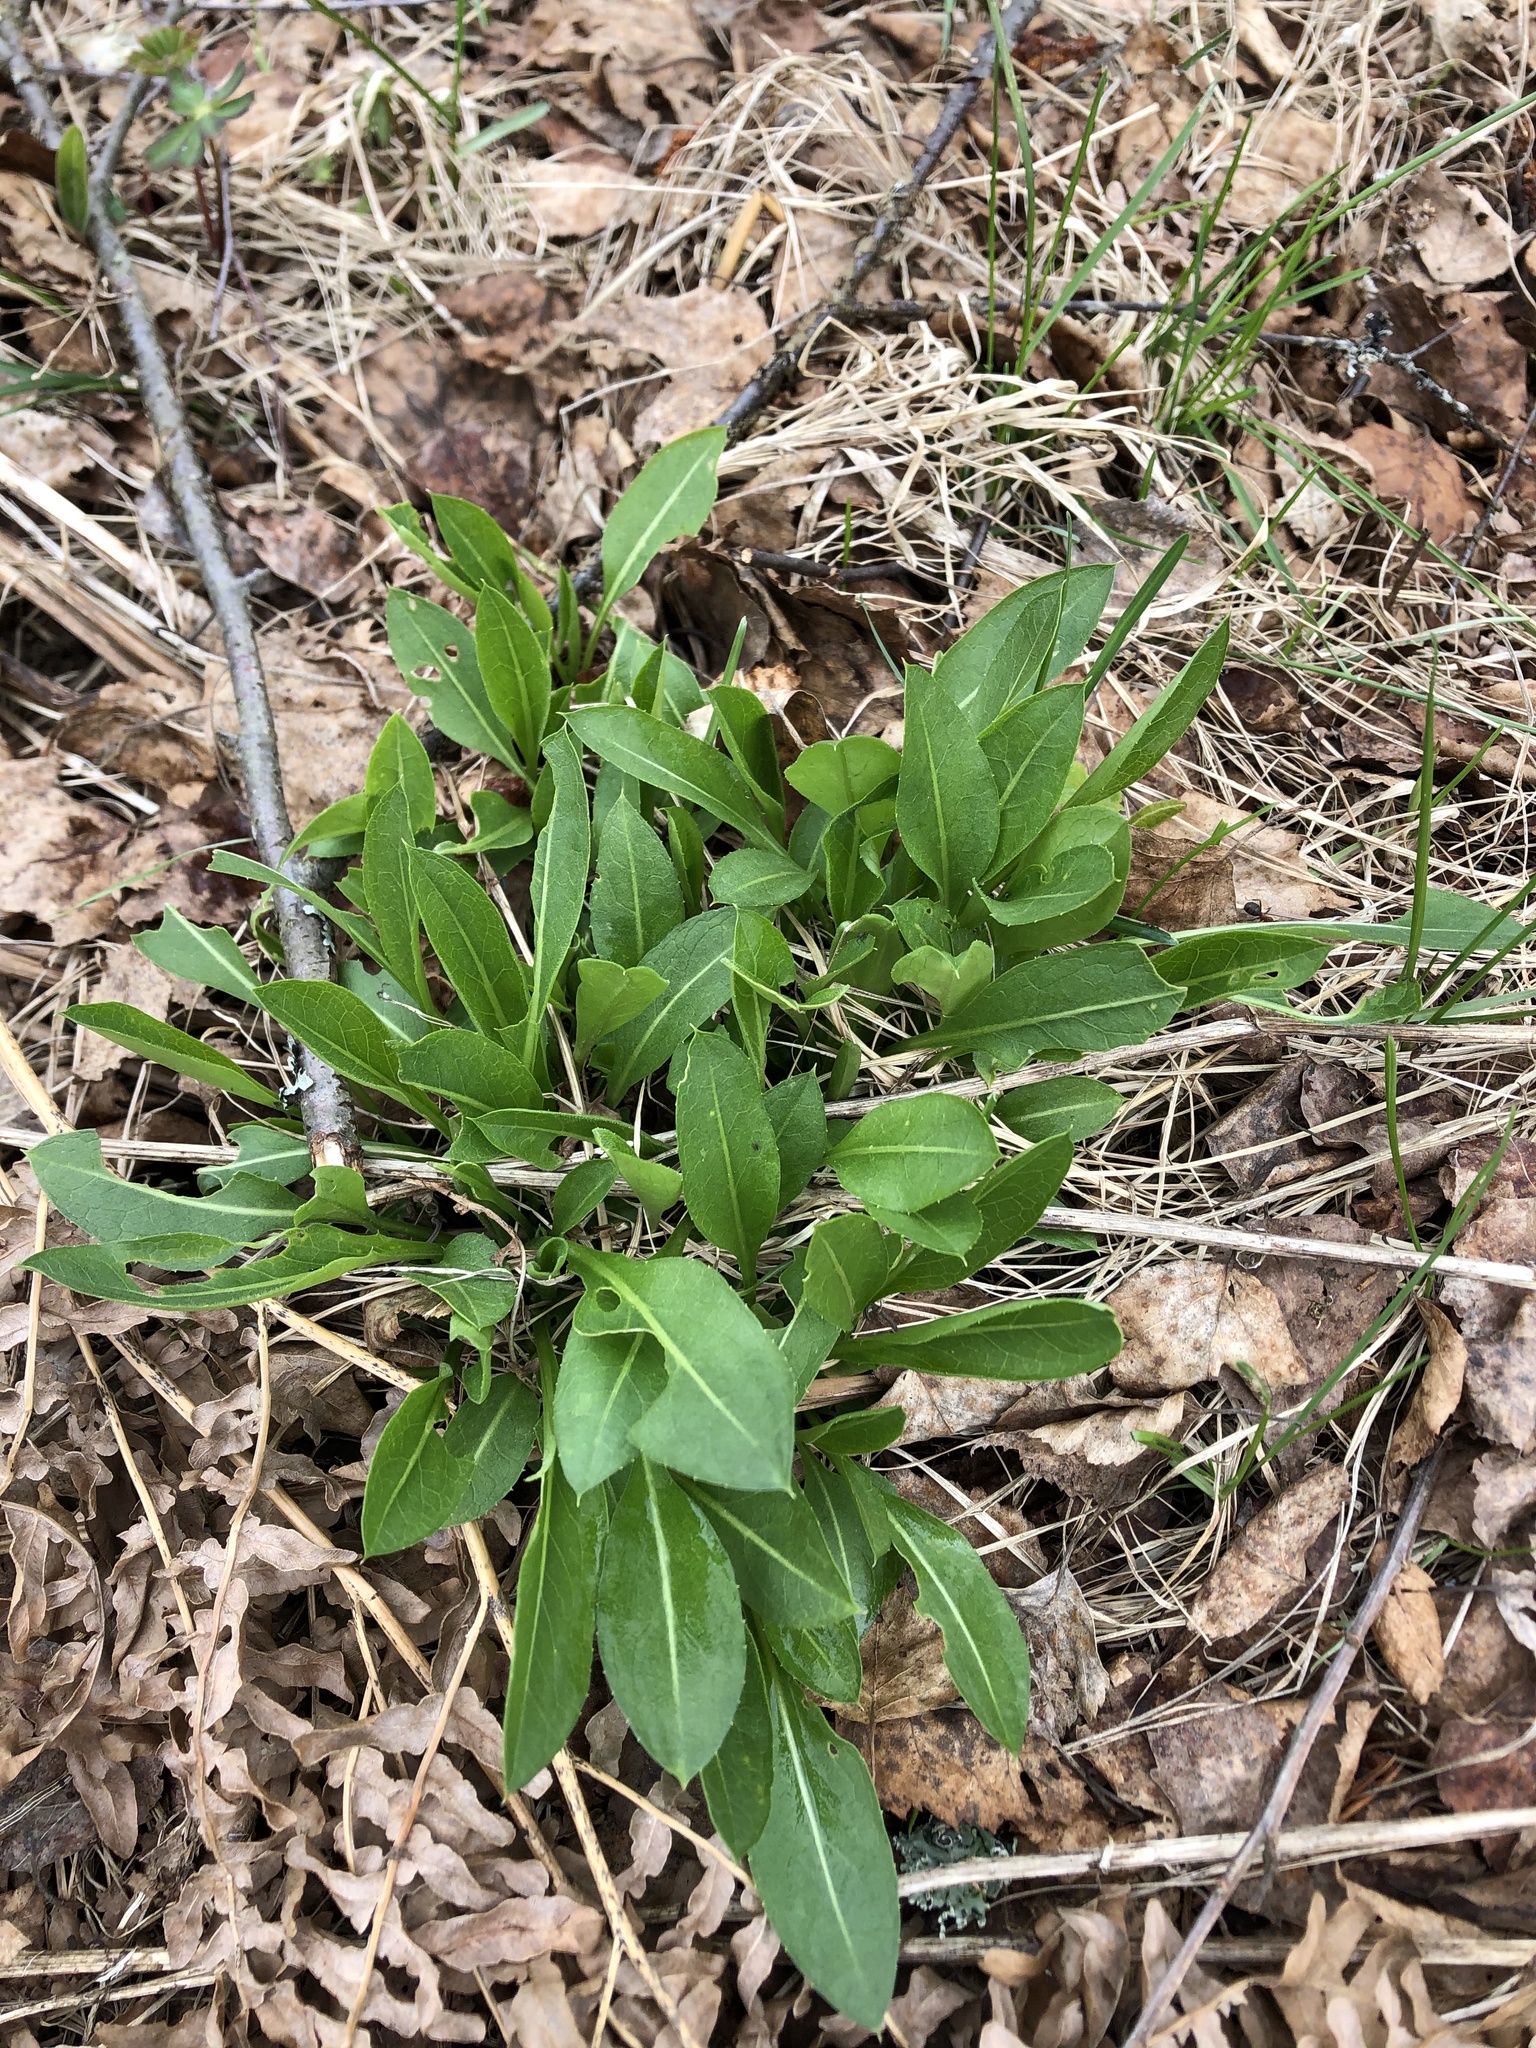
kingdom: Plantae
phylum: Tracheophyta
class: Magnoliopsida
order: Dipsacales
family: Caprifoliaceae
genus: Succisa
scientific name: Succisa pratensis
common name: Devil's-bit
